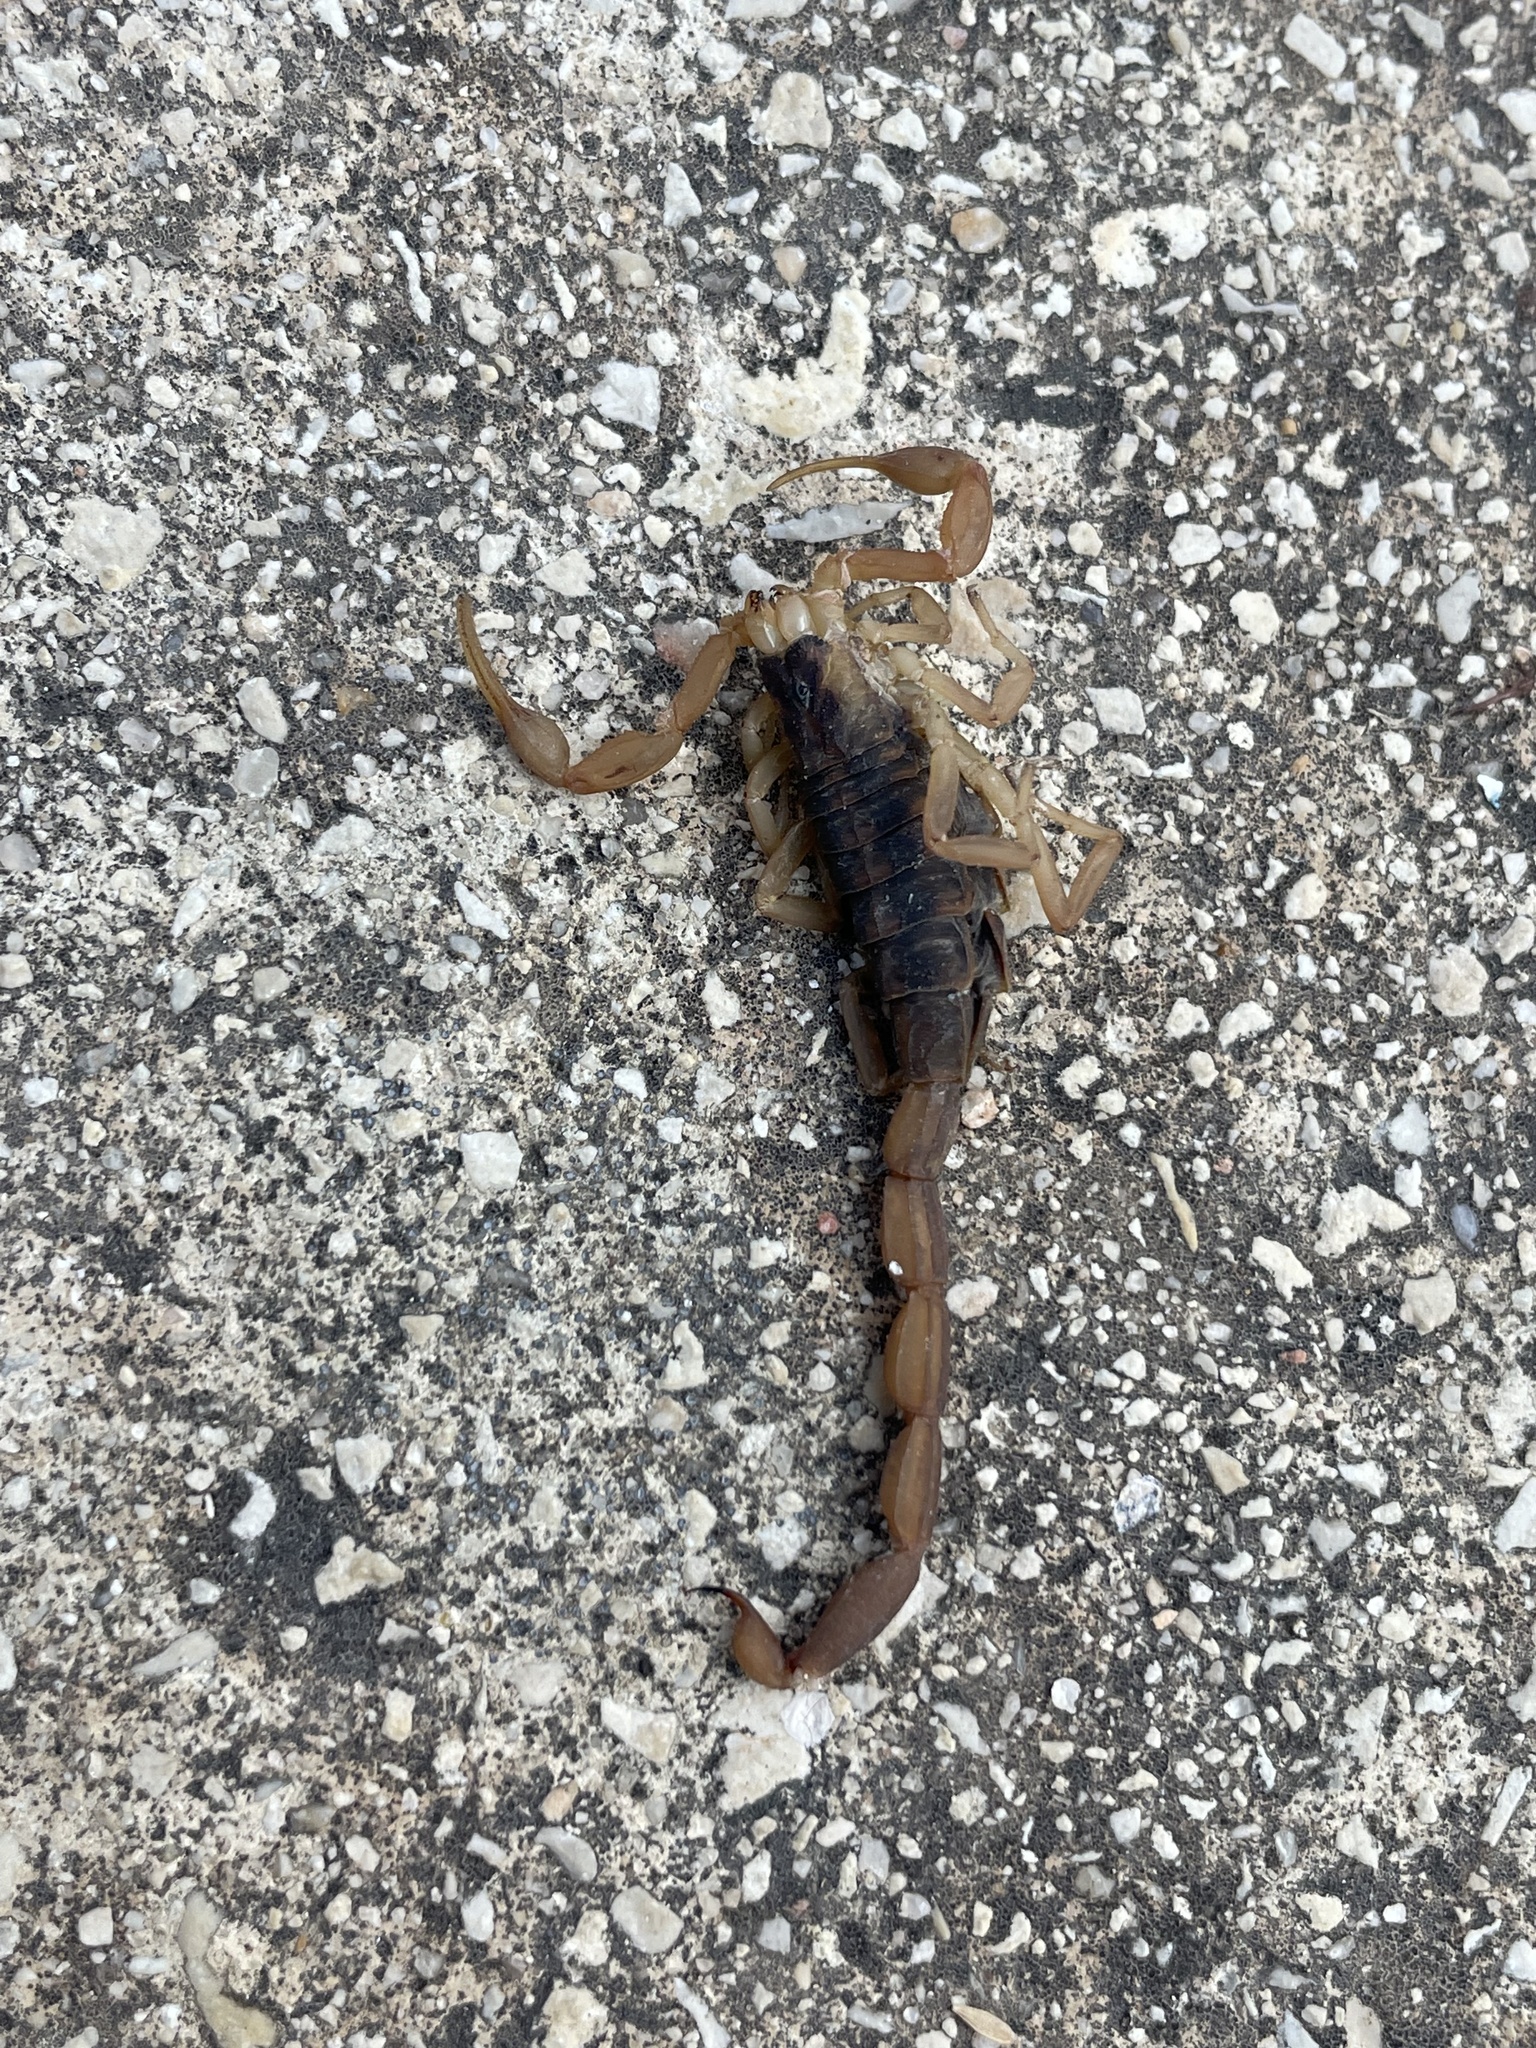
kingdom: Animalia
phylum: Arthropoda
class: Arachnida
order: Scorpiones
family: Buthidae
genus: Centruroides
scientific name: Centruroides vittatus
